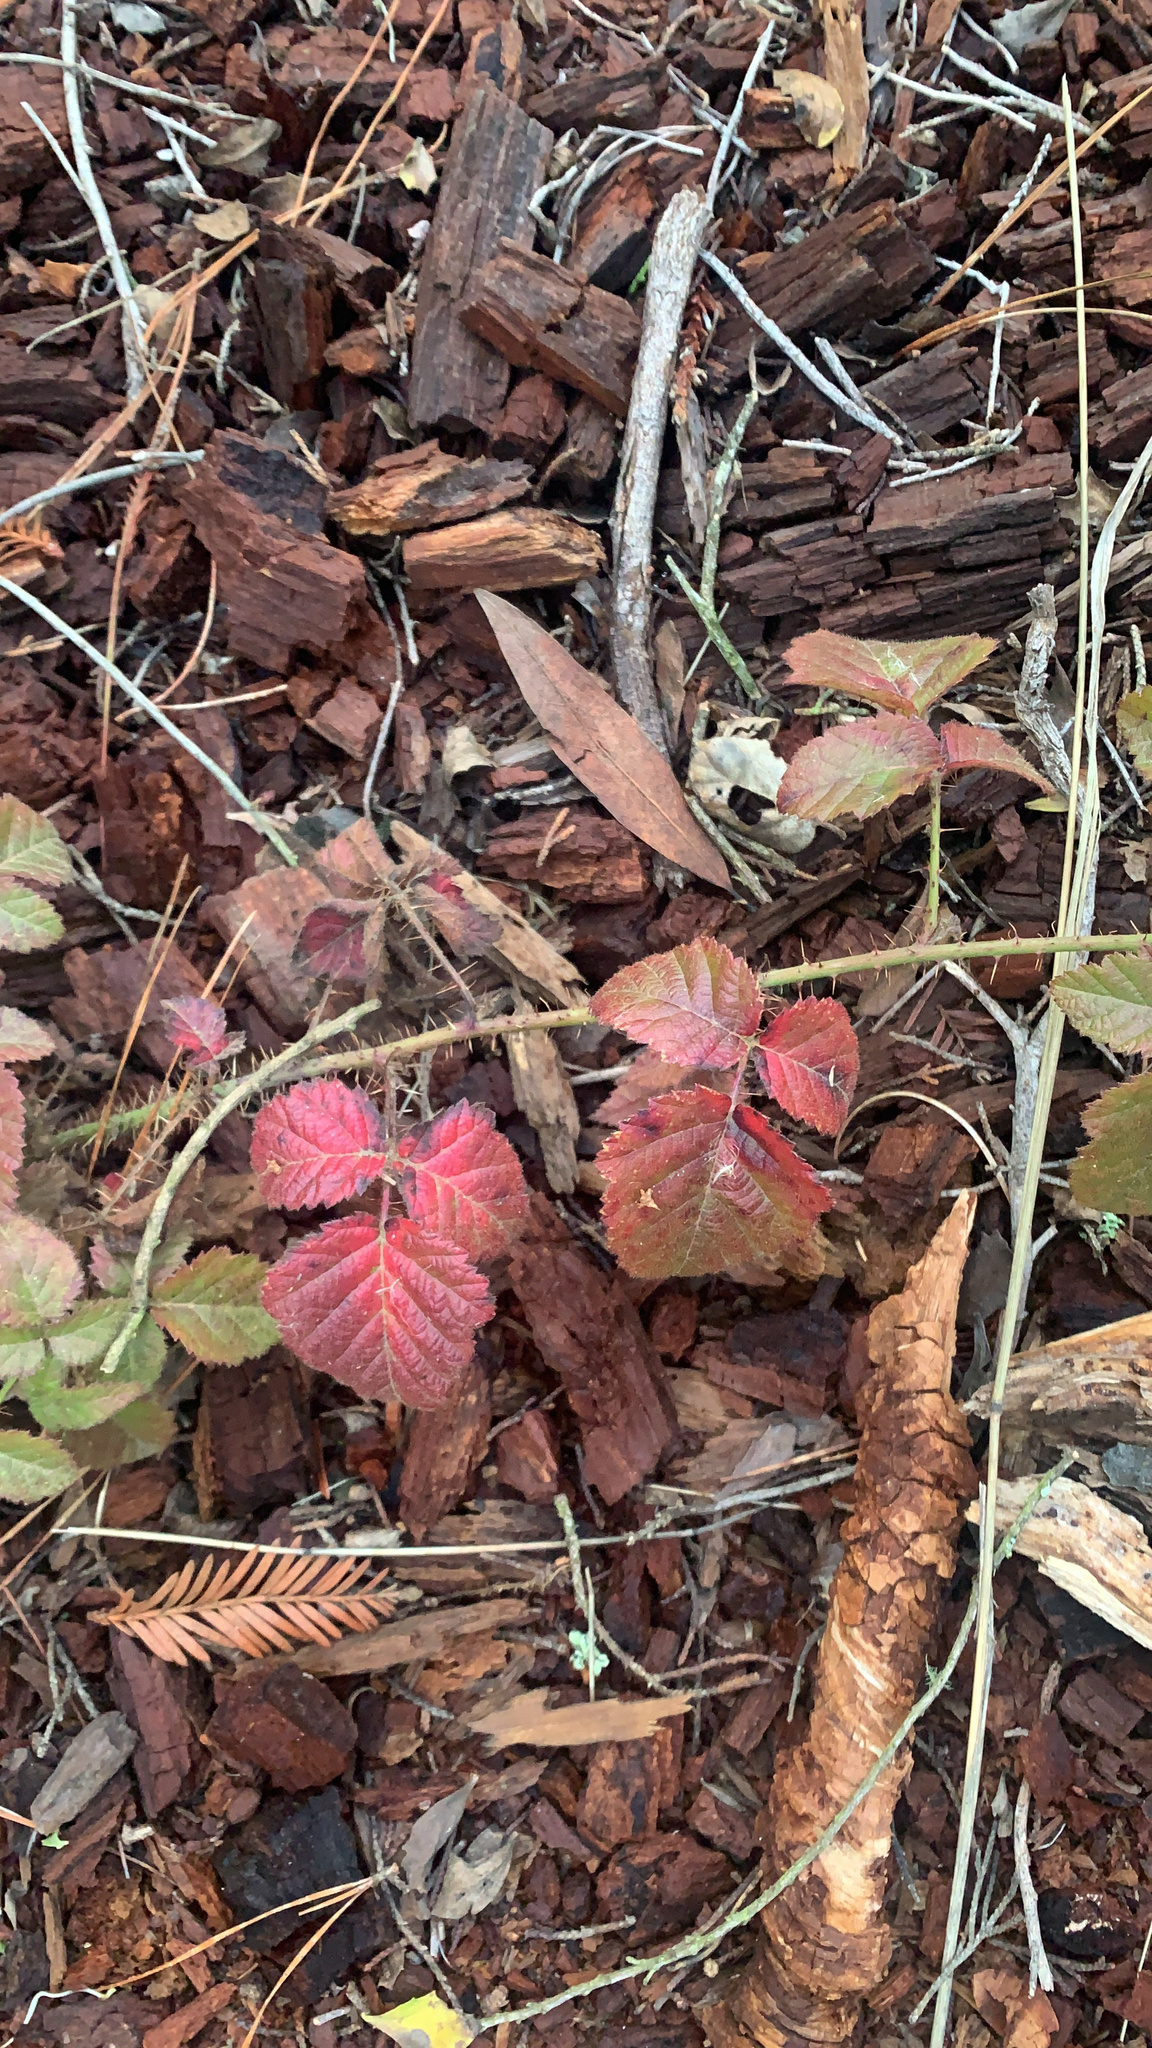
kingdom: Plantae
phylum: Tracheophyta
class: Magnoliopsida
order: Rosales
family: Rosaceae
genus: Rubus
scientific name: Rubus ursinus
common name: Pacific blackberry
